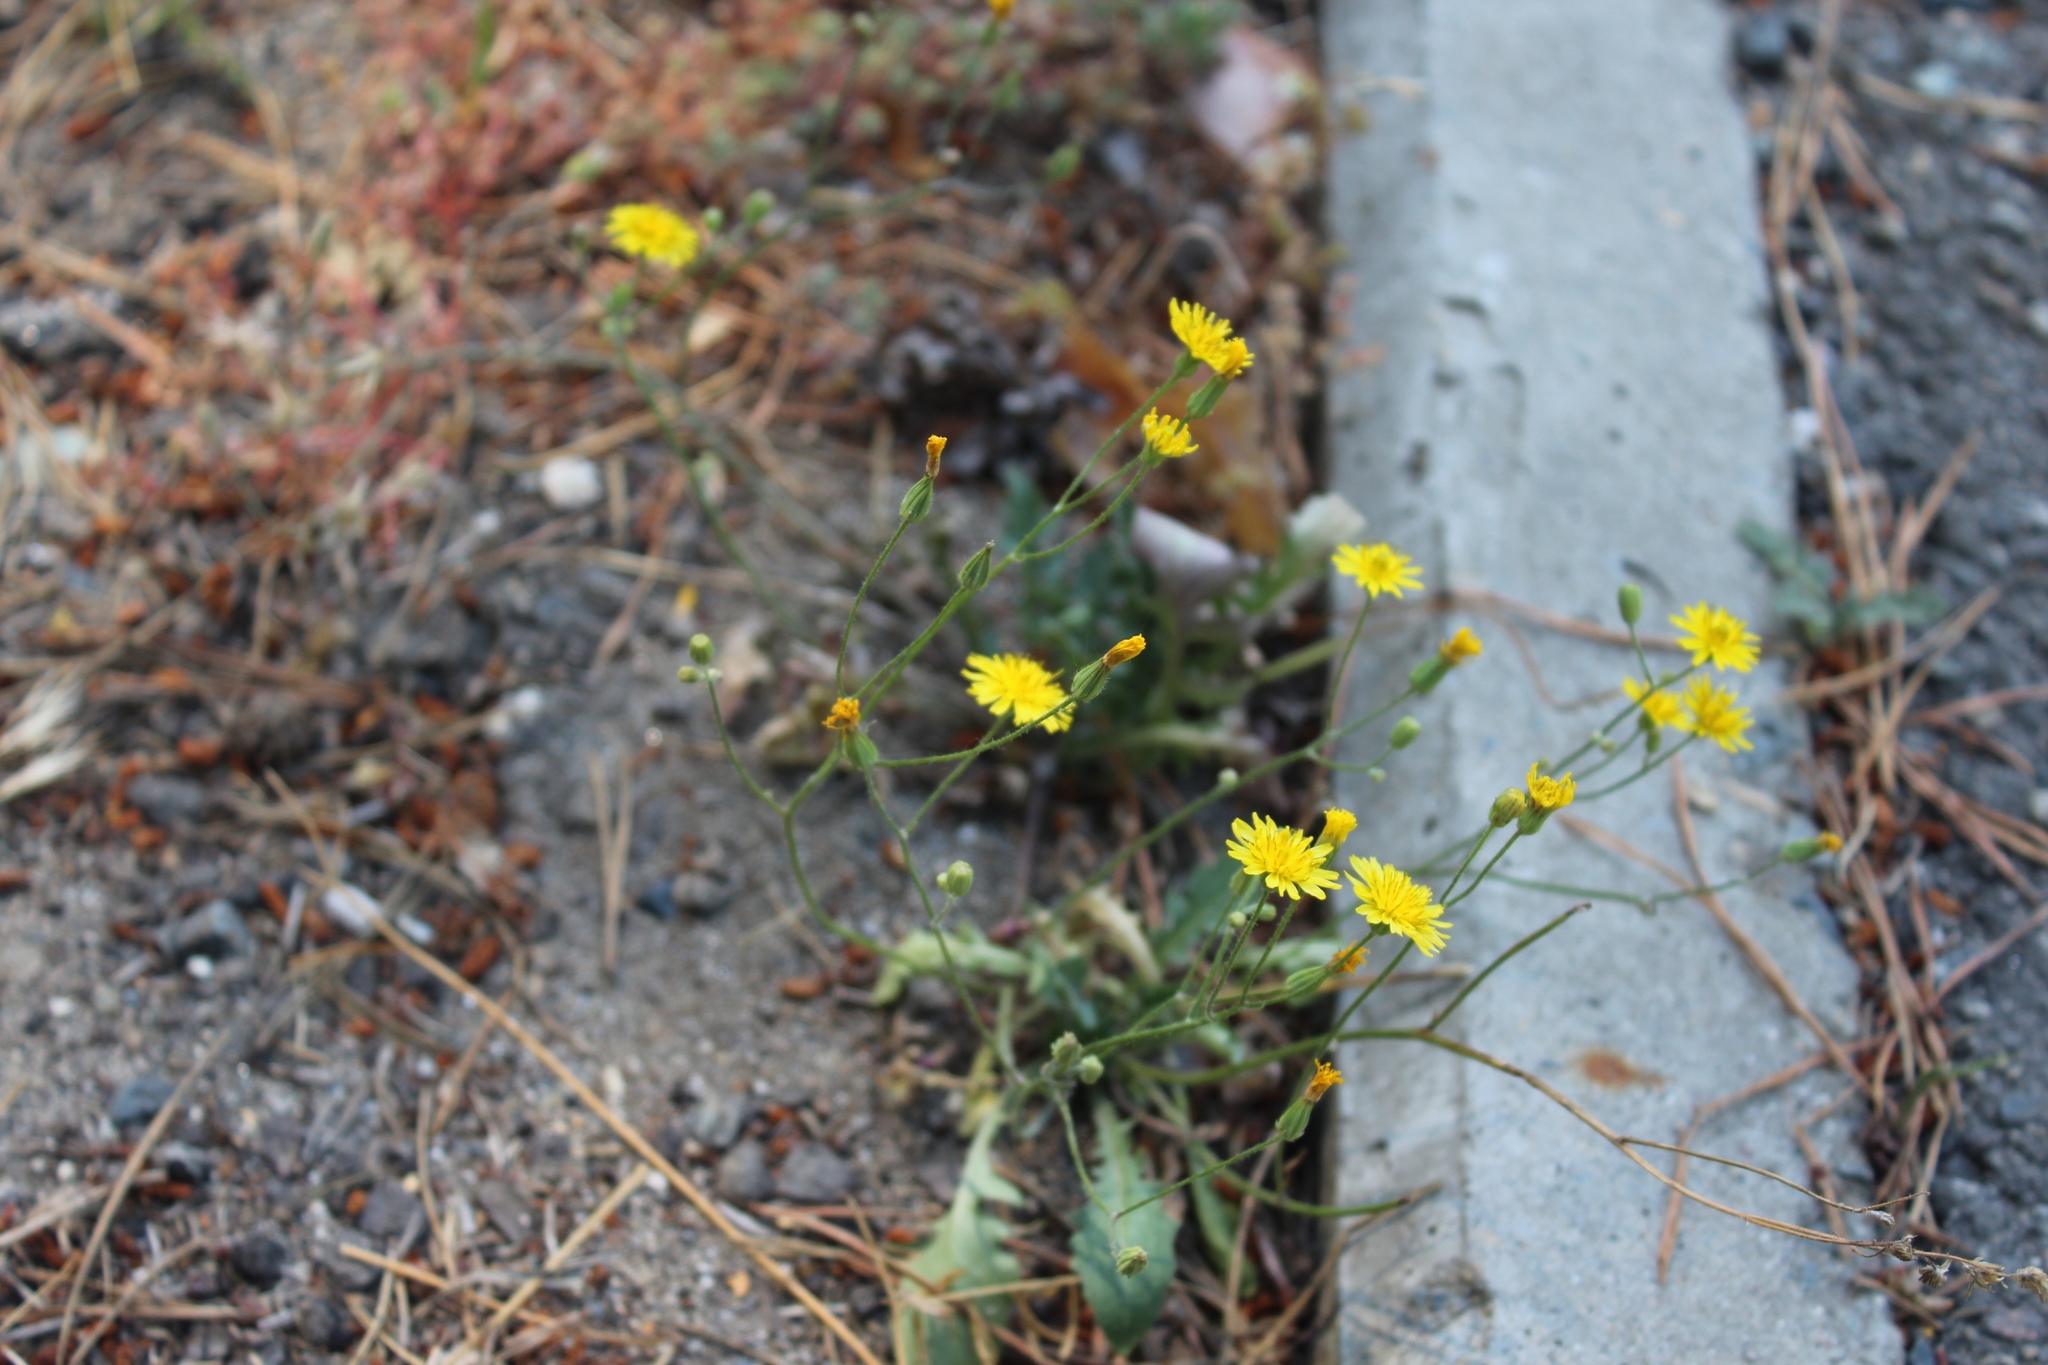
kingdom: Plantae
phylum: Tracheophyta
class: Magnoliopsida
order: Asterales
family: Asteraceae
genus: Crepis
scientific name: Crepis sancta
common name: Hawk's-beard
